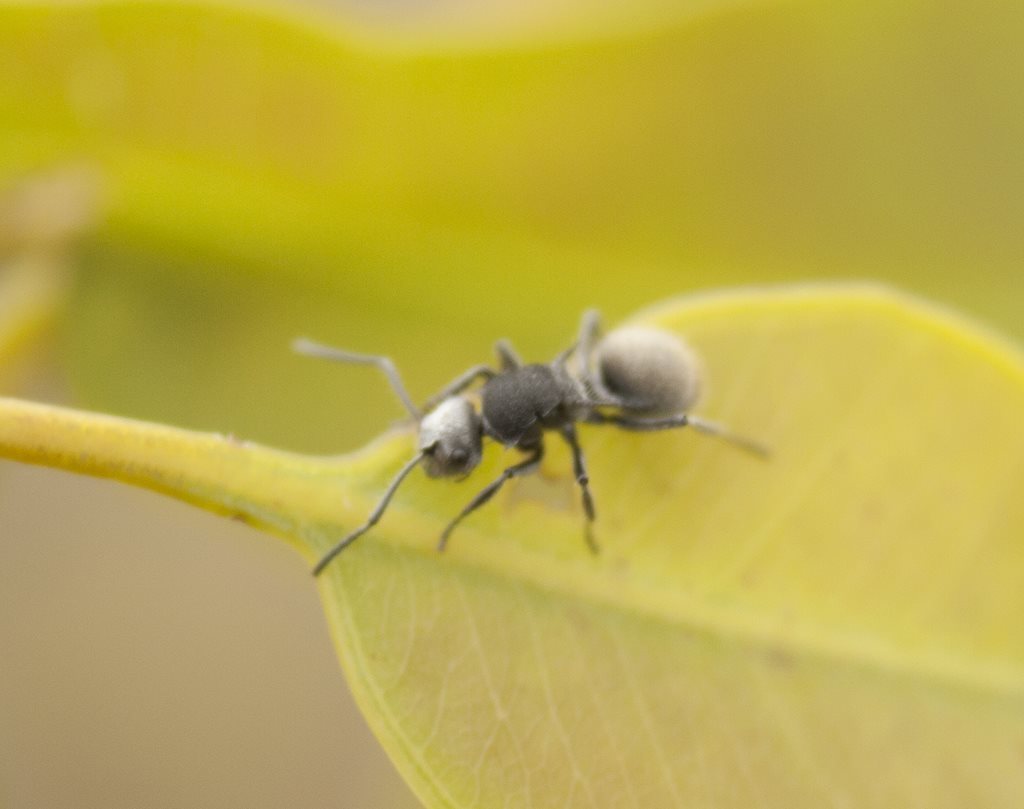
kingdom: Animalia
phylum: Arthropoda
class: Insecta
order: Hymenoptera
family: Formicidae
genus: Polyrhachis
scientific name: Polyrhachis senilis
